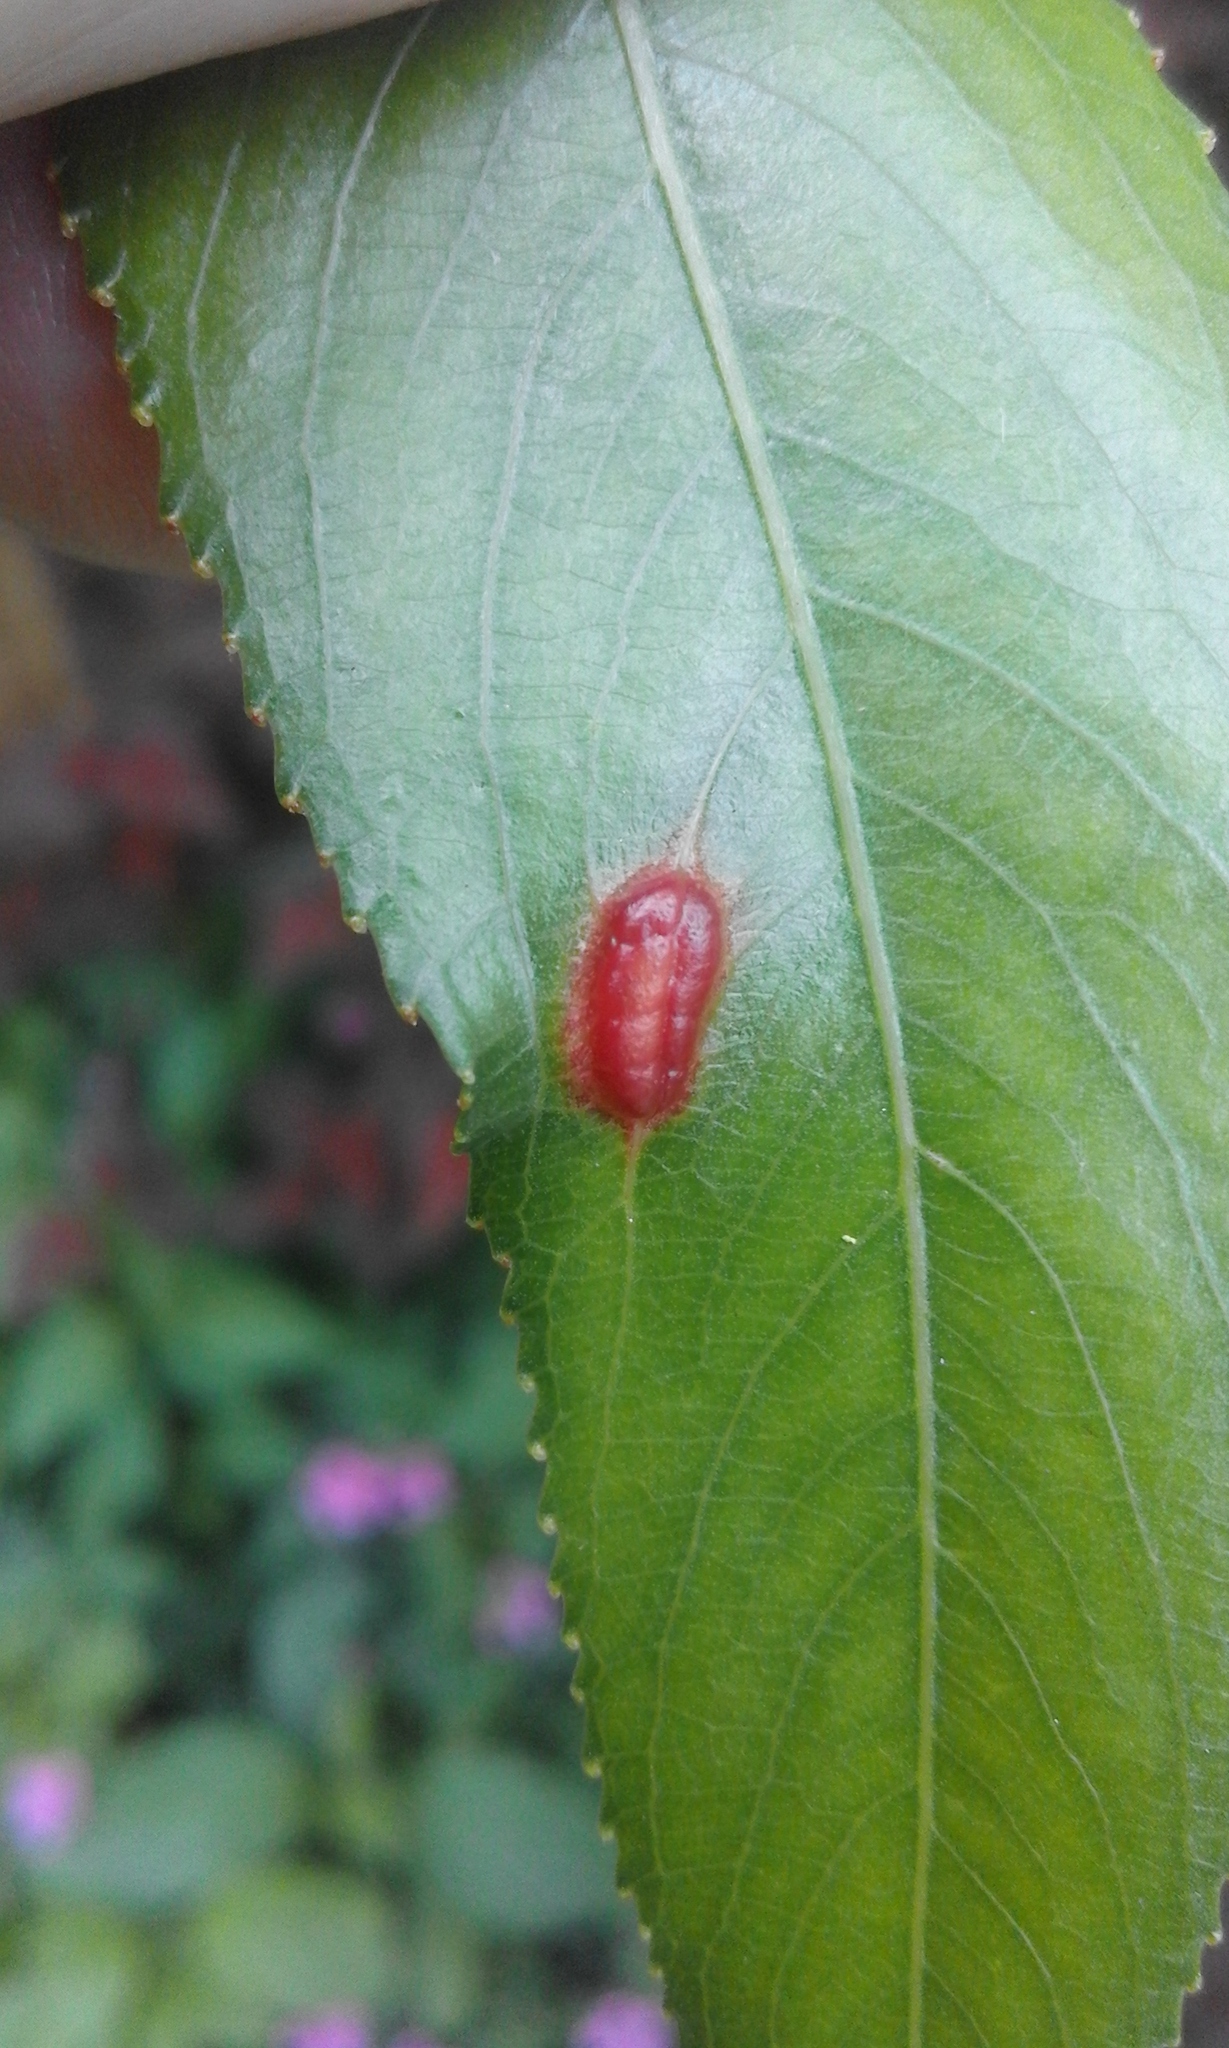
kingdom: Animalia
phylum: Arthropoda
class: Insecta
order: Hymenoptera
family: Tenthredinidae
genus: Pontania
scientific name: Pontania proxima
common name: Common sawfly
